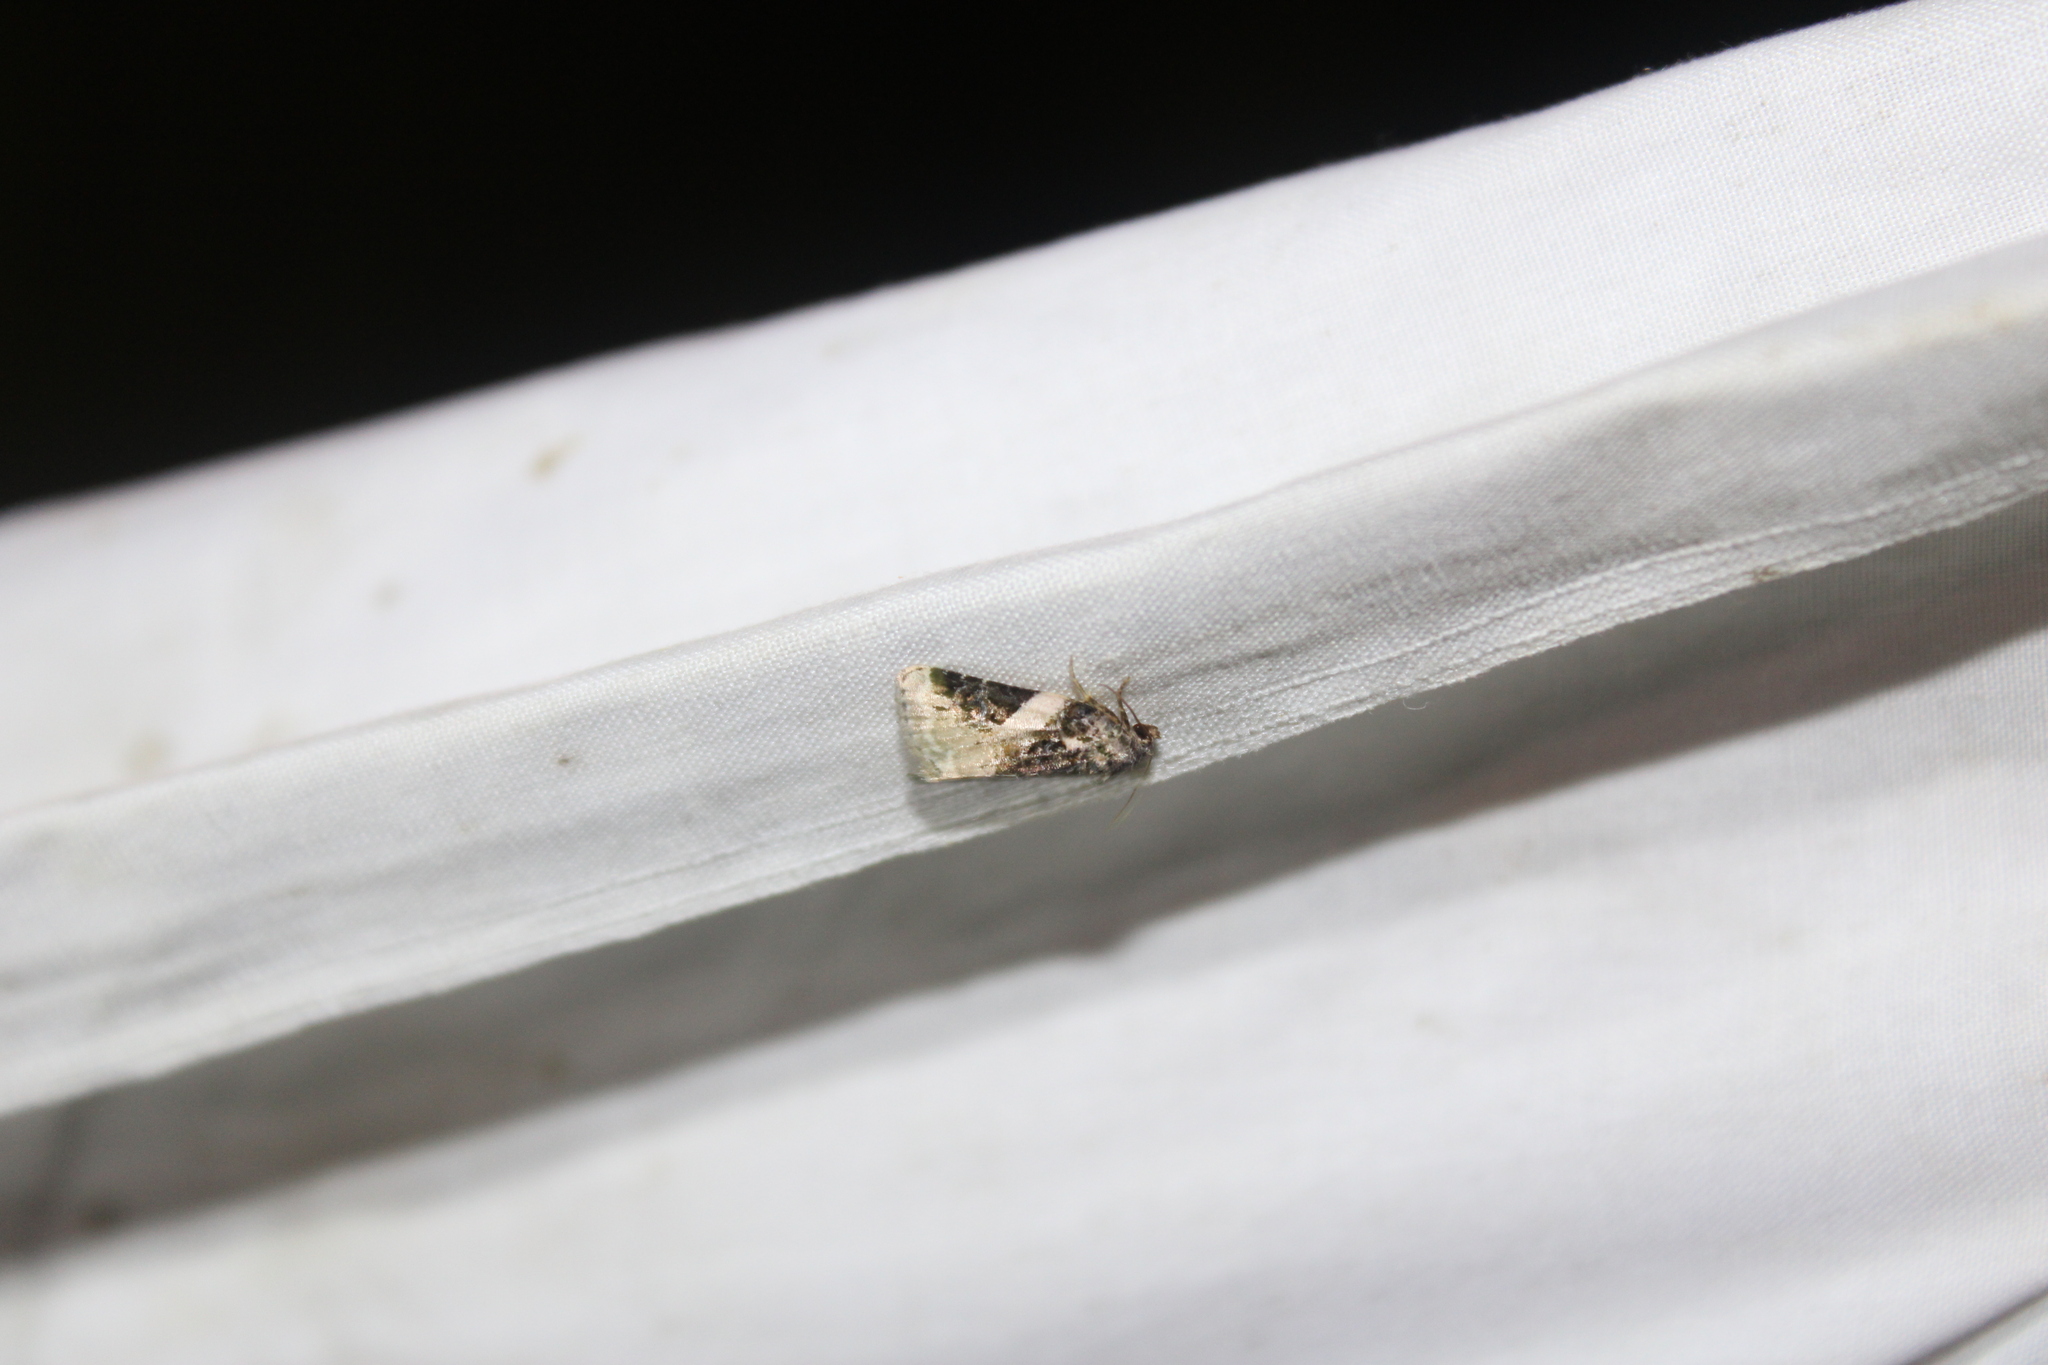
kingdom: Animalia
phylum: Arthropoda
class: Insecta
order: Lepidoptera
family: Noctuidae
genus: Pseudeustrotia
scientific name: Pseudeustrotia carneola
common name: Pink-barred lithacodia moth
